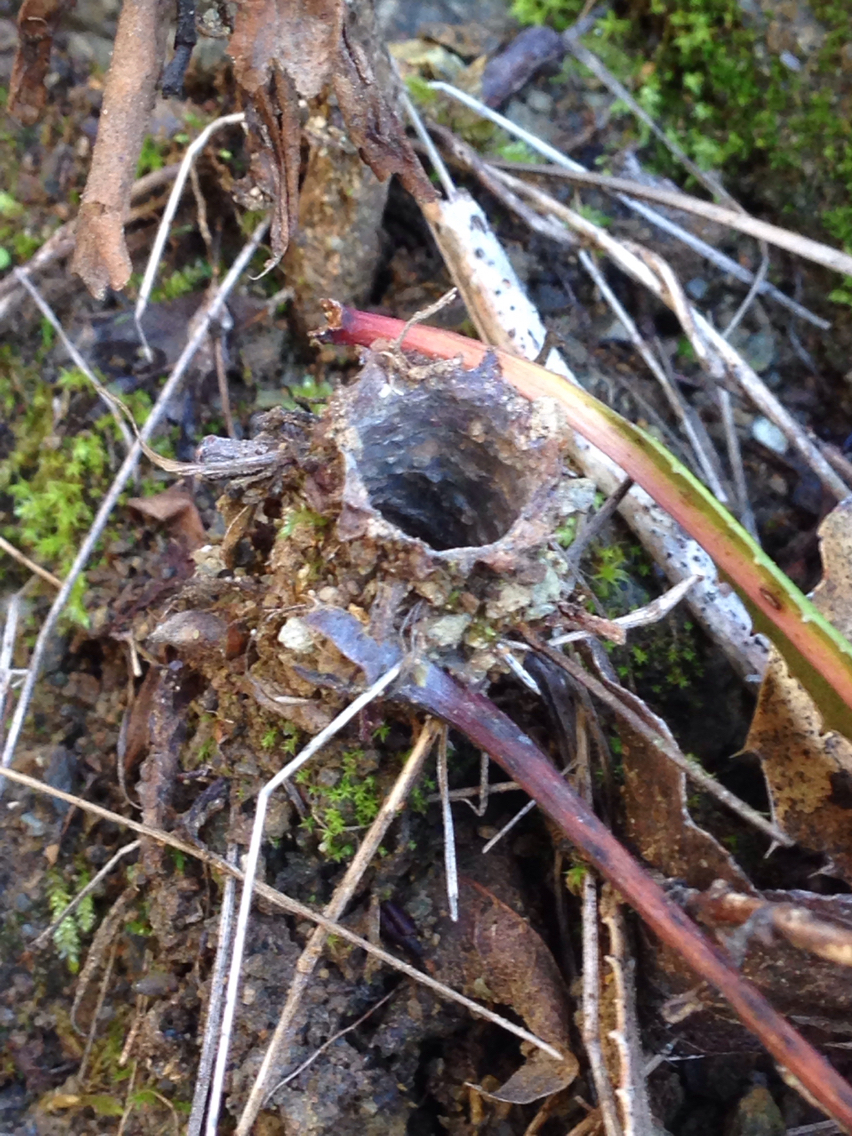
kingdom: Animalia
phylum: Arthropoda
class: Arachnida
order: Araneae
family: Antrodiaetidae
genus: Atypoides
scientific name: Atypoides riversi
